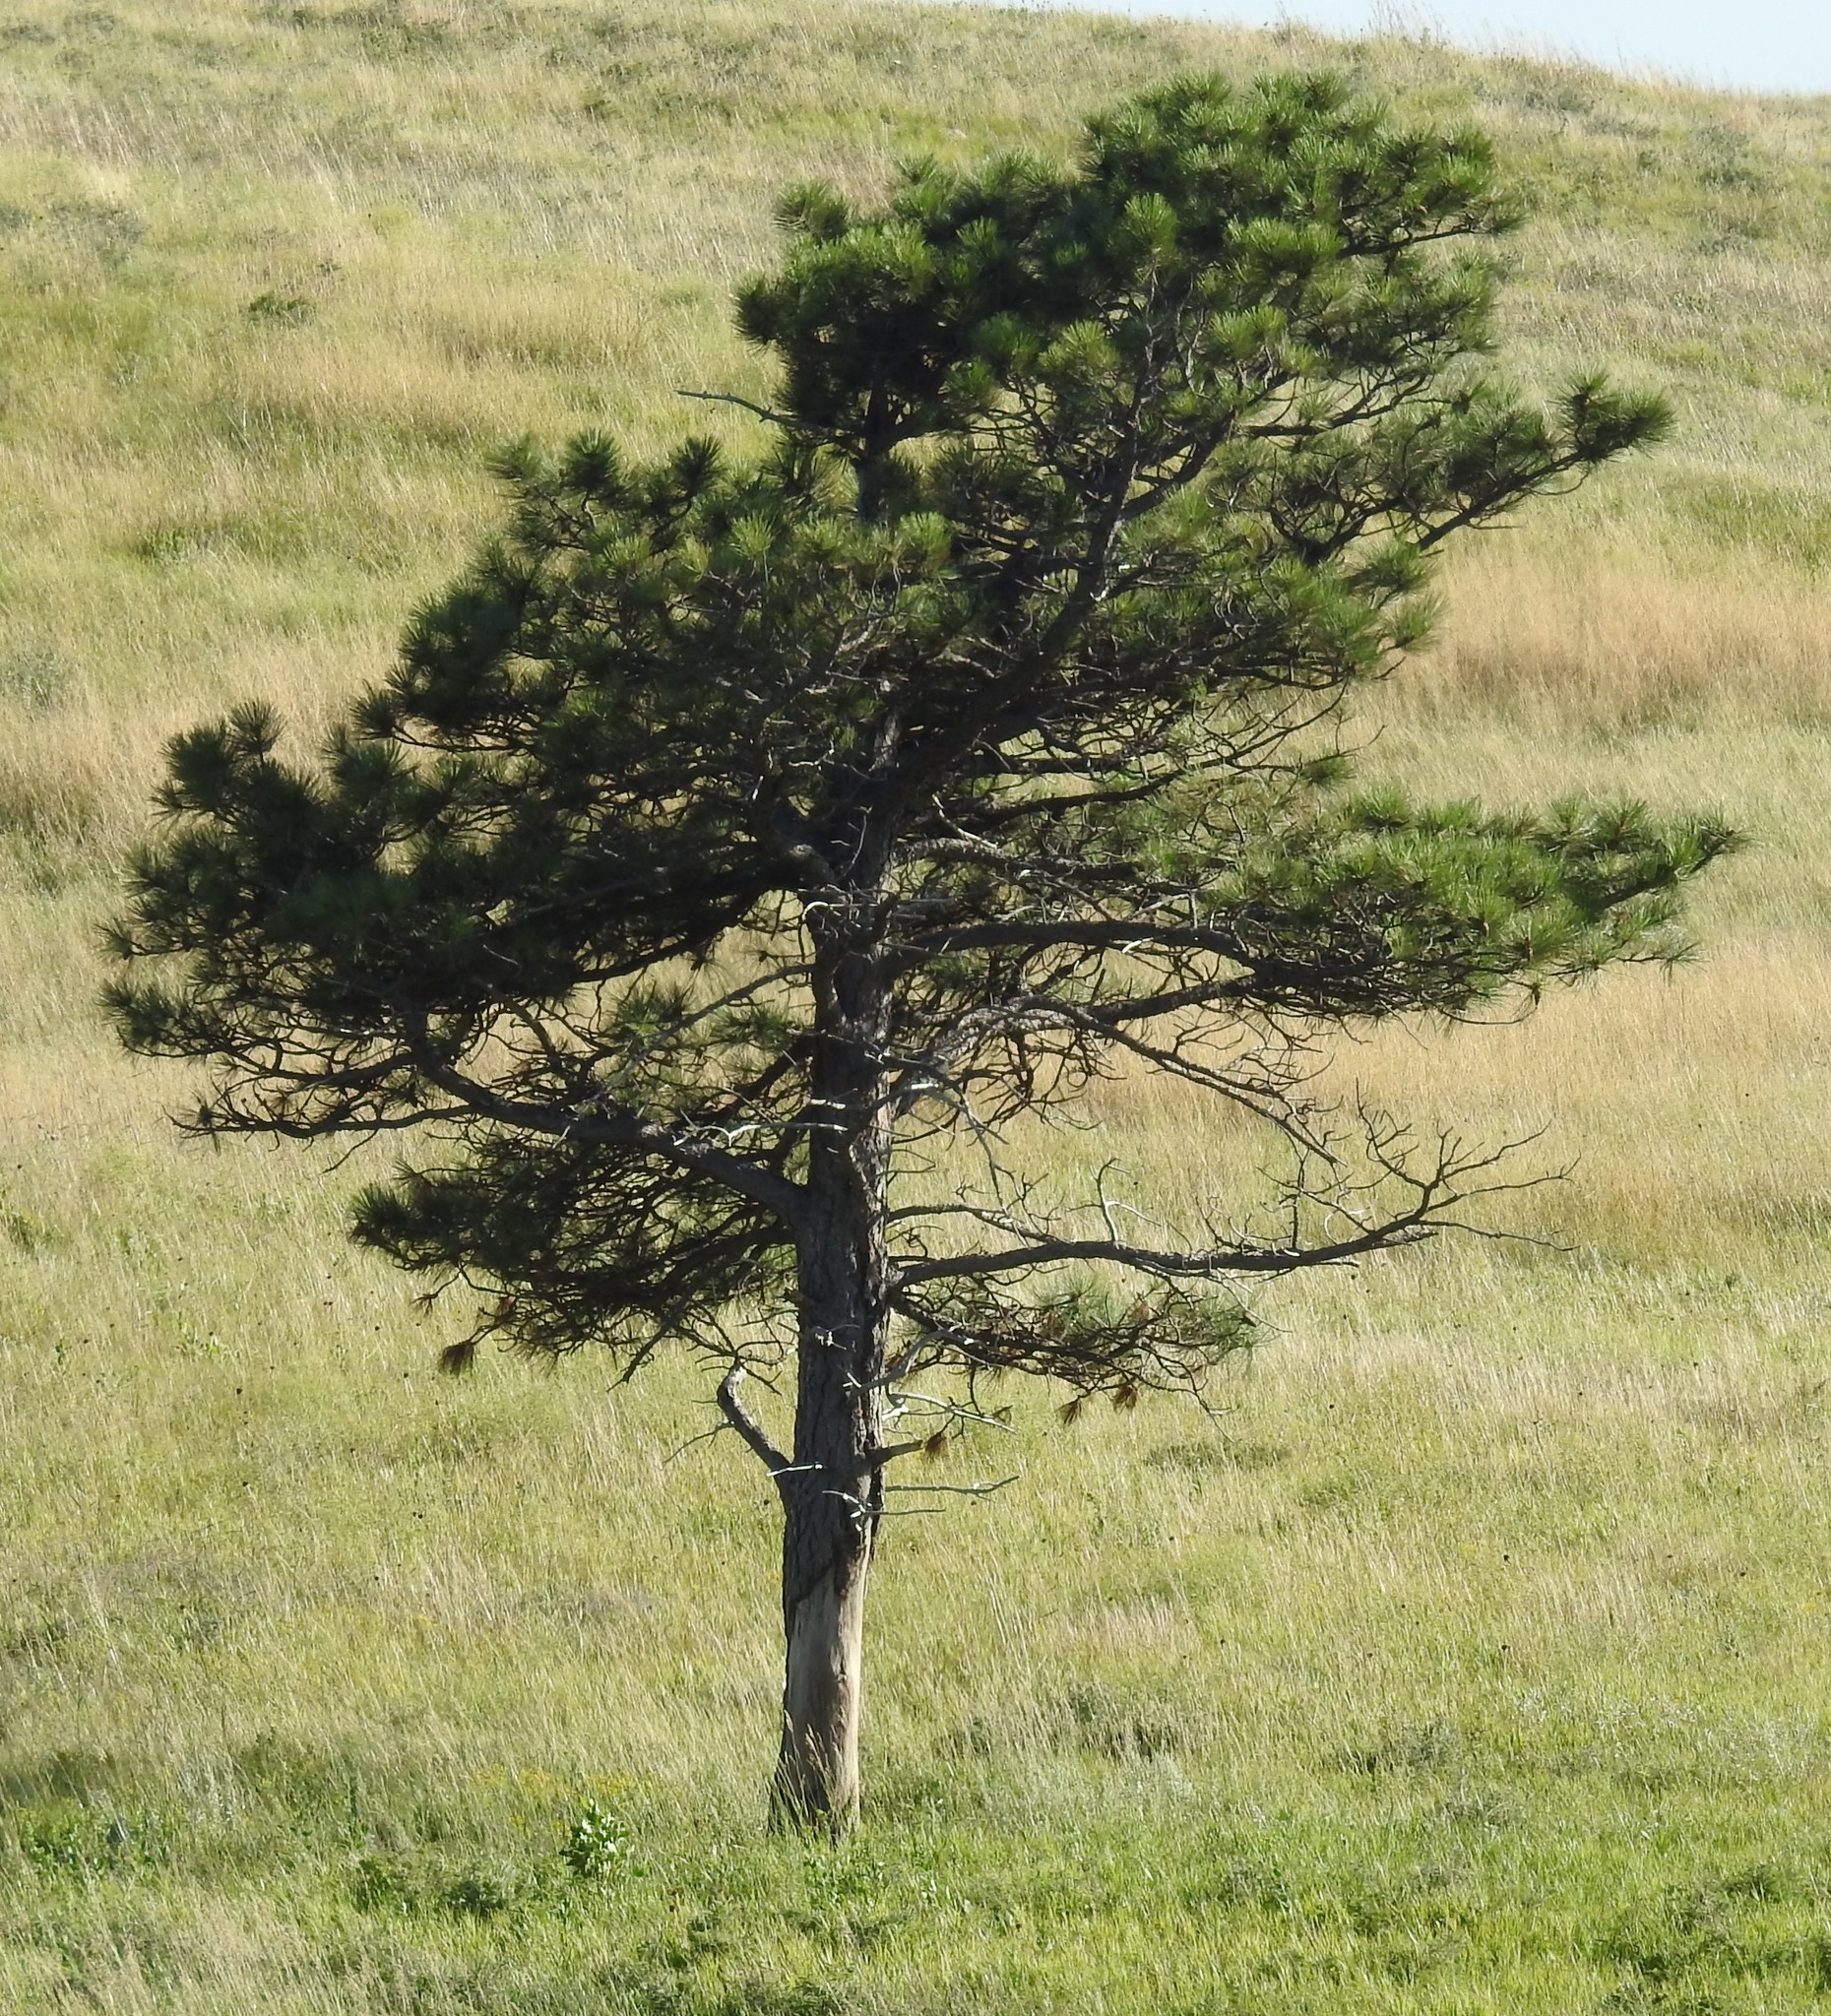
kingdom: Plantae
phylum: Tracheophyta
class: Pinopsida
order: Pinales
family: Pinaceae
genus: Pinus
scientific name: Pinus ponderosa
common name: Western yellow-pine
